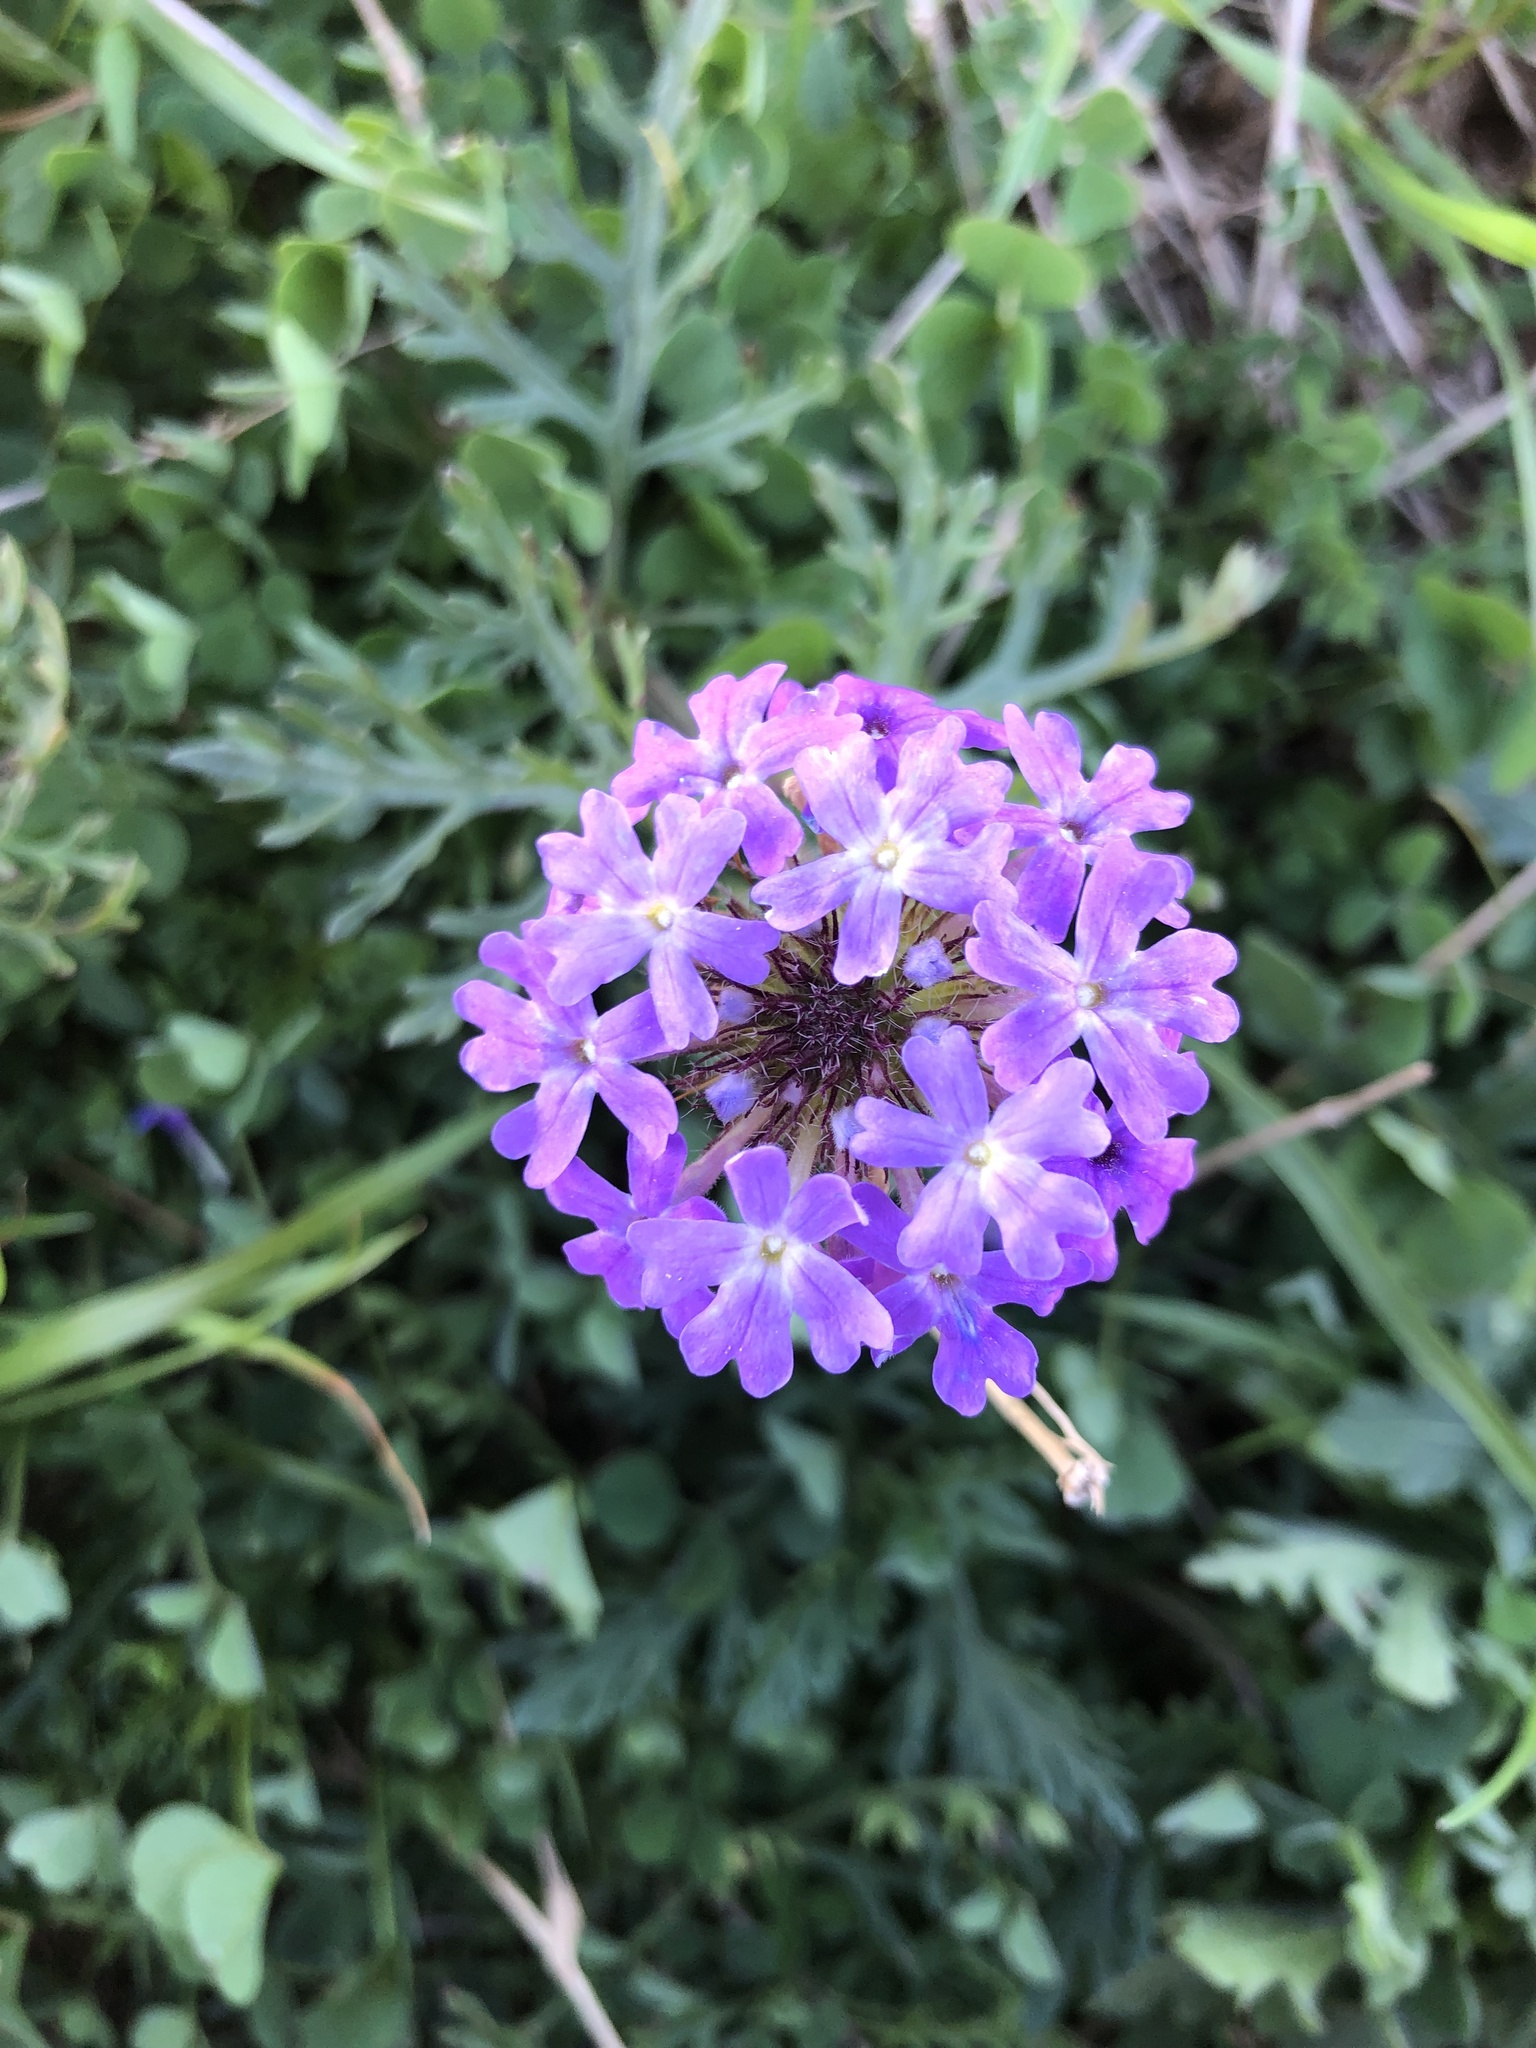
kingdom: Plantae
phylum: Tracheophyta
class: Magnoliopsida
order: Lamiales
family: Verbenaceae
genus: Verbena
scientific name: Verbena bipinnatifida
